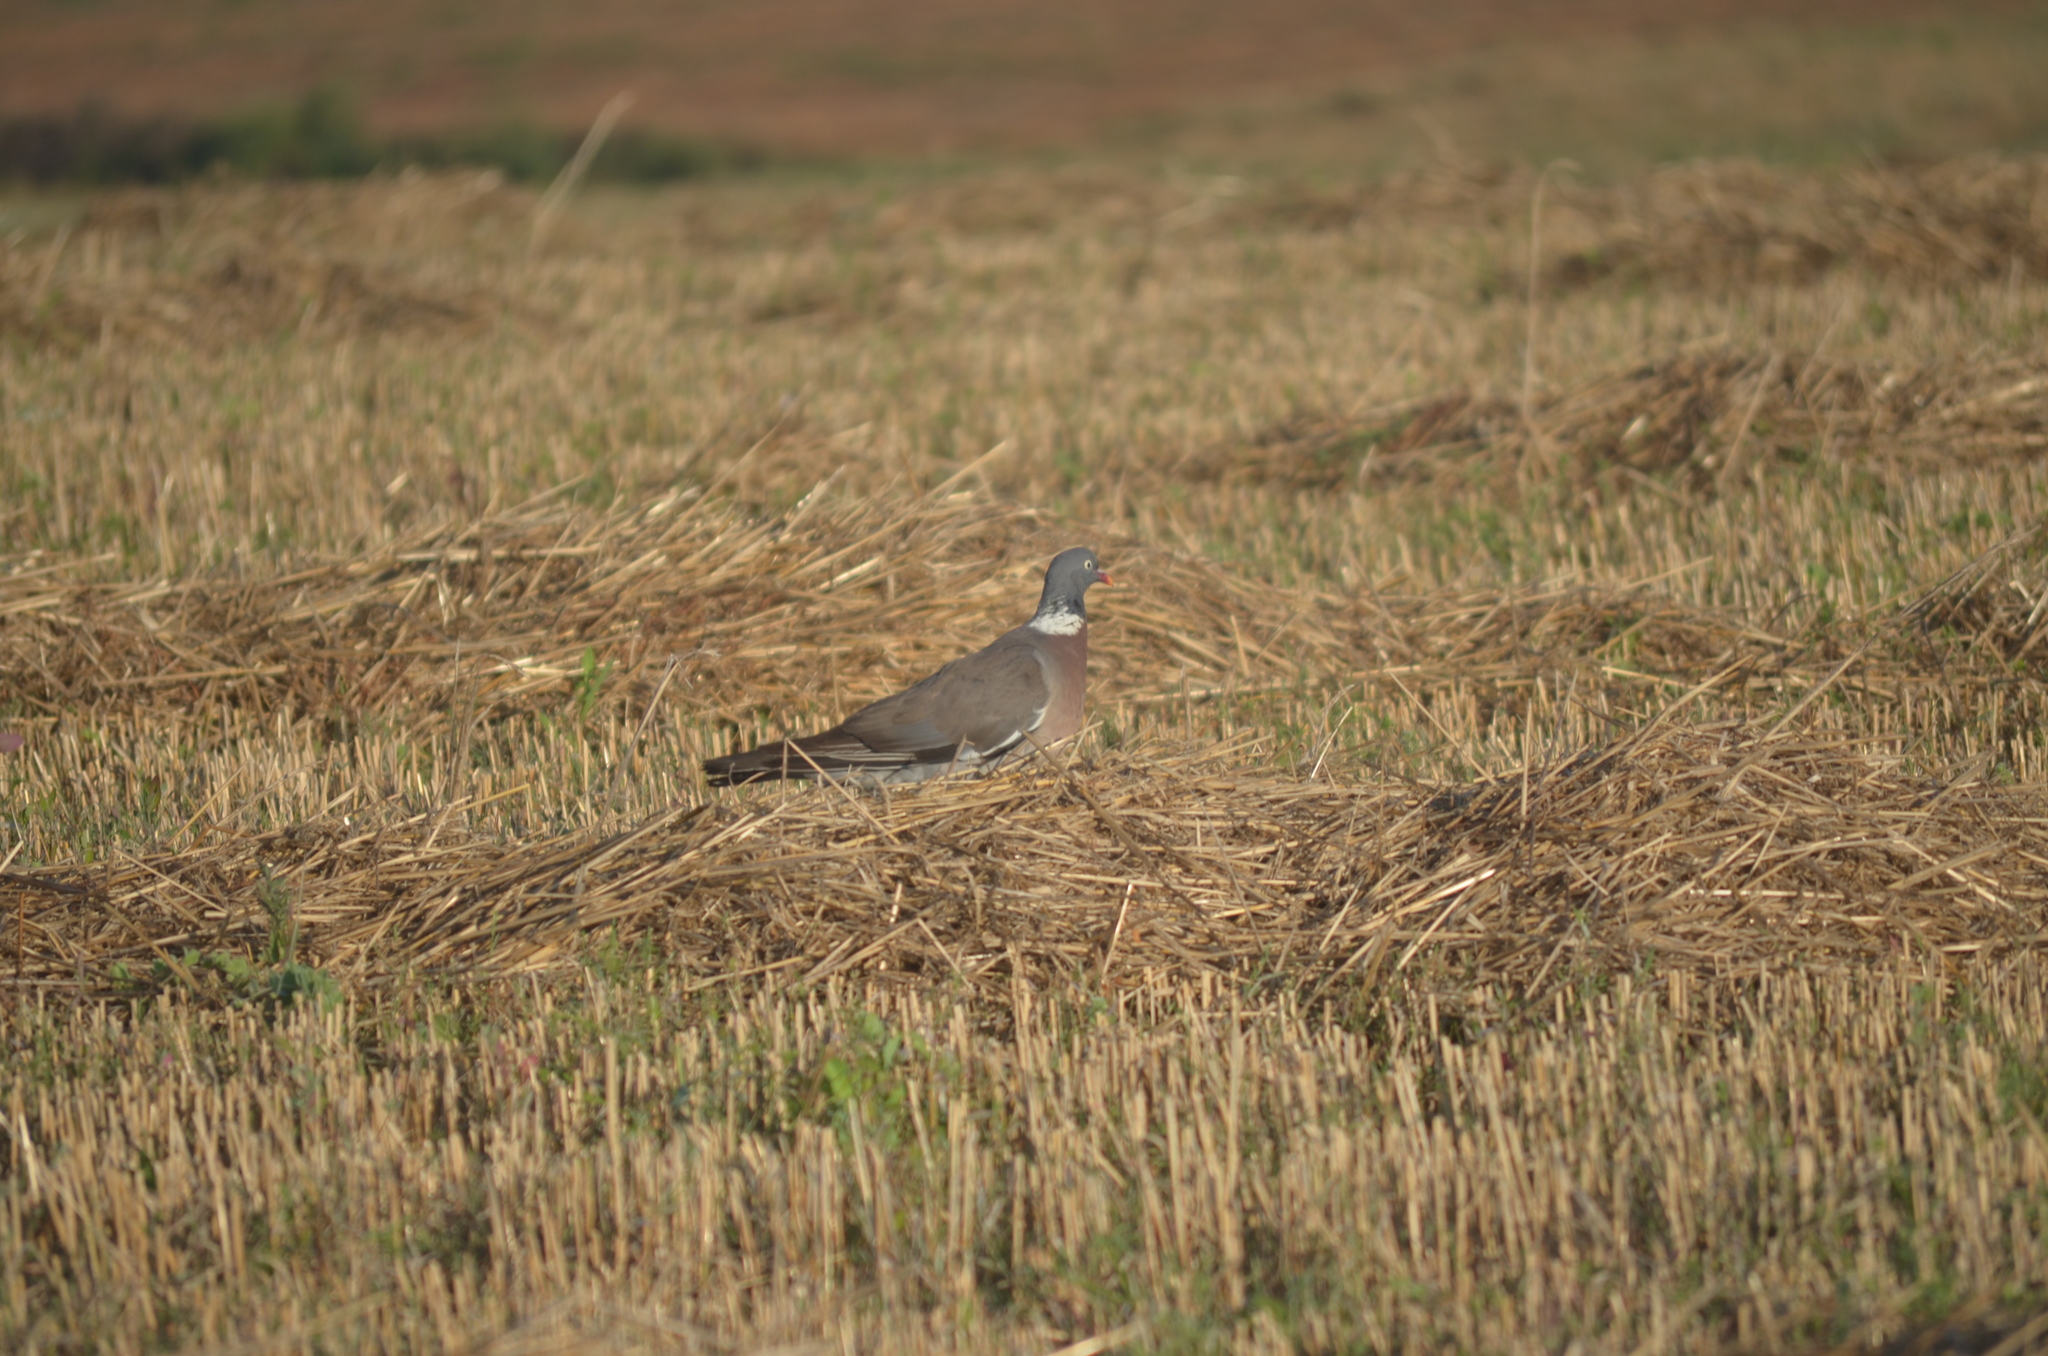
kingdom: Animalia
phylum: Chordata
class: Aves
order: Columbiformes
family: Columbidae
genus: Columba
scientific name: Columba palumbus
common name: Common wood pigeon
